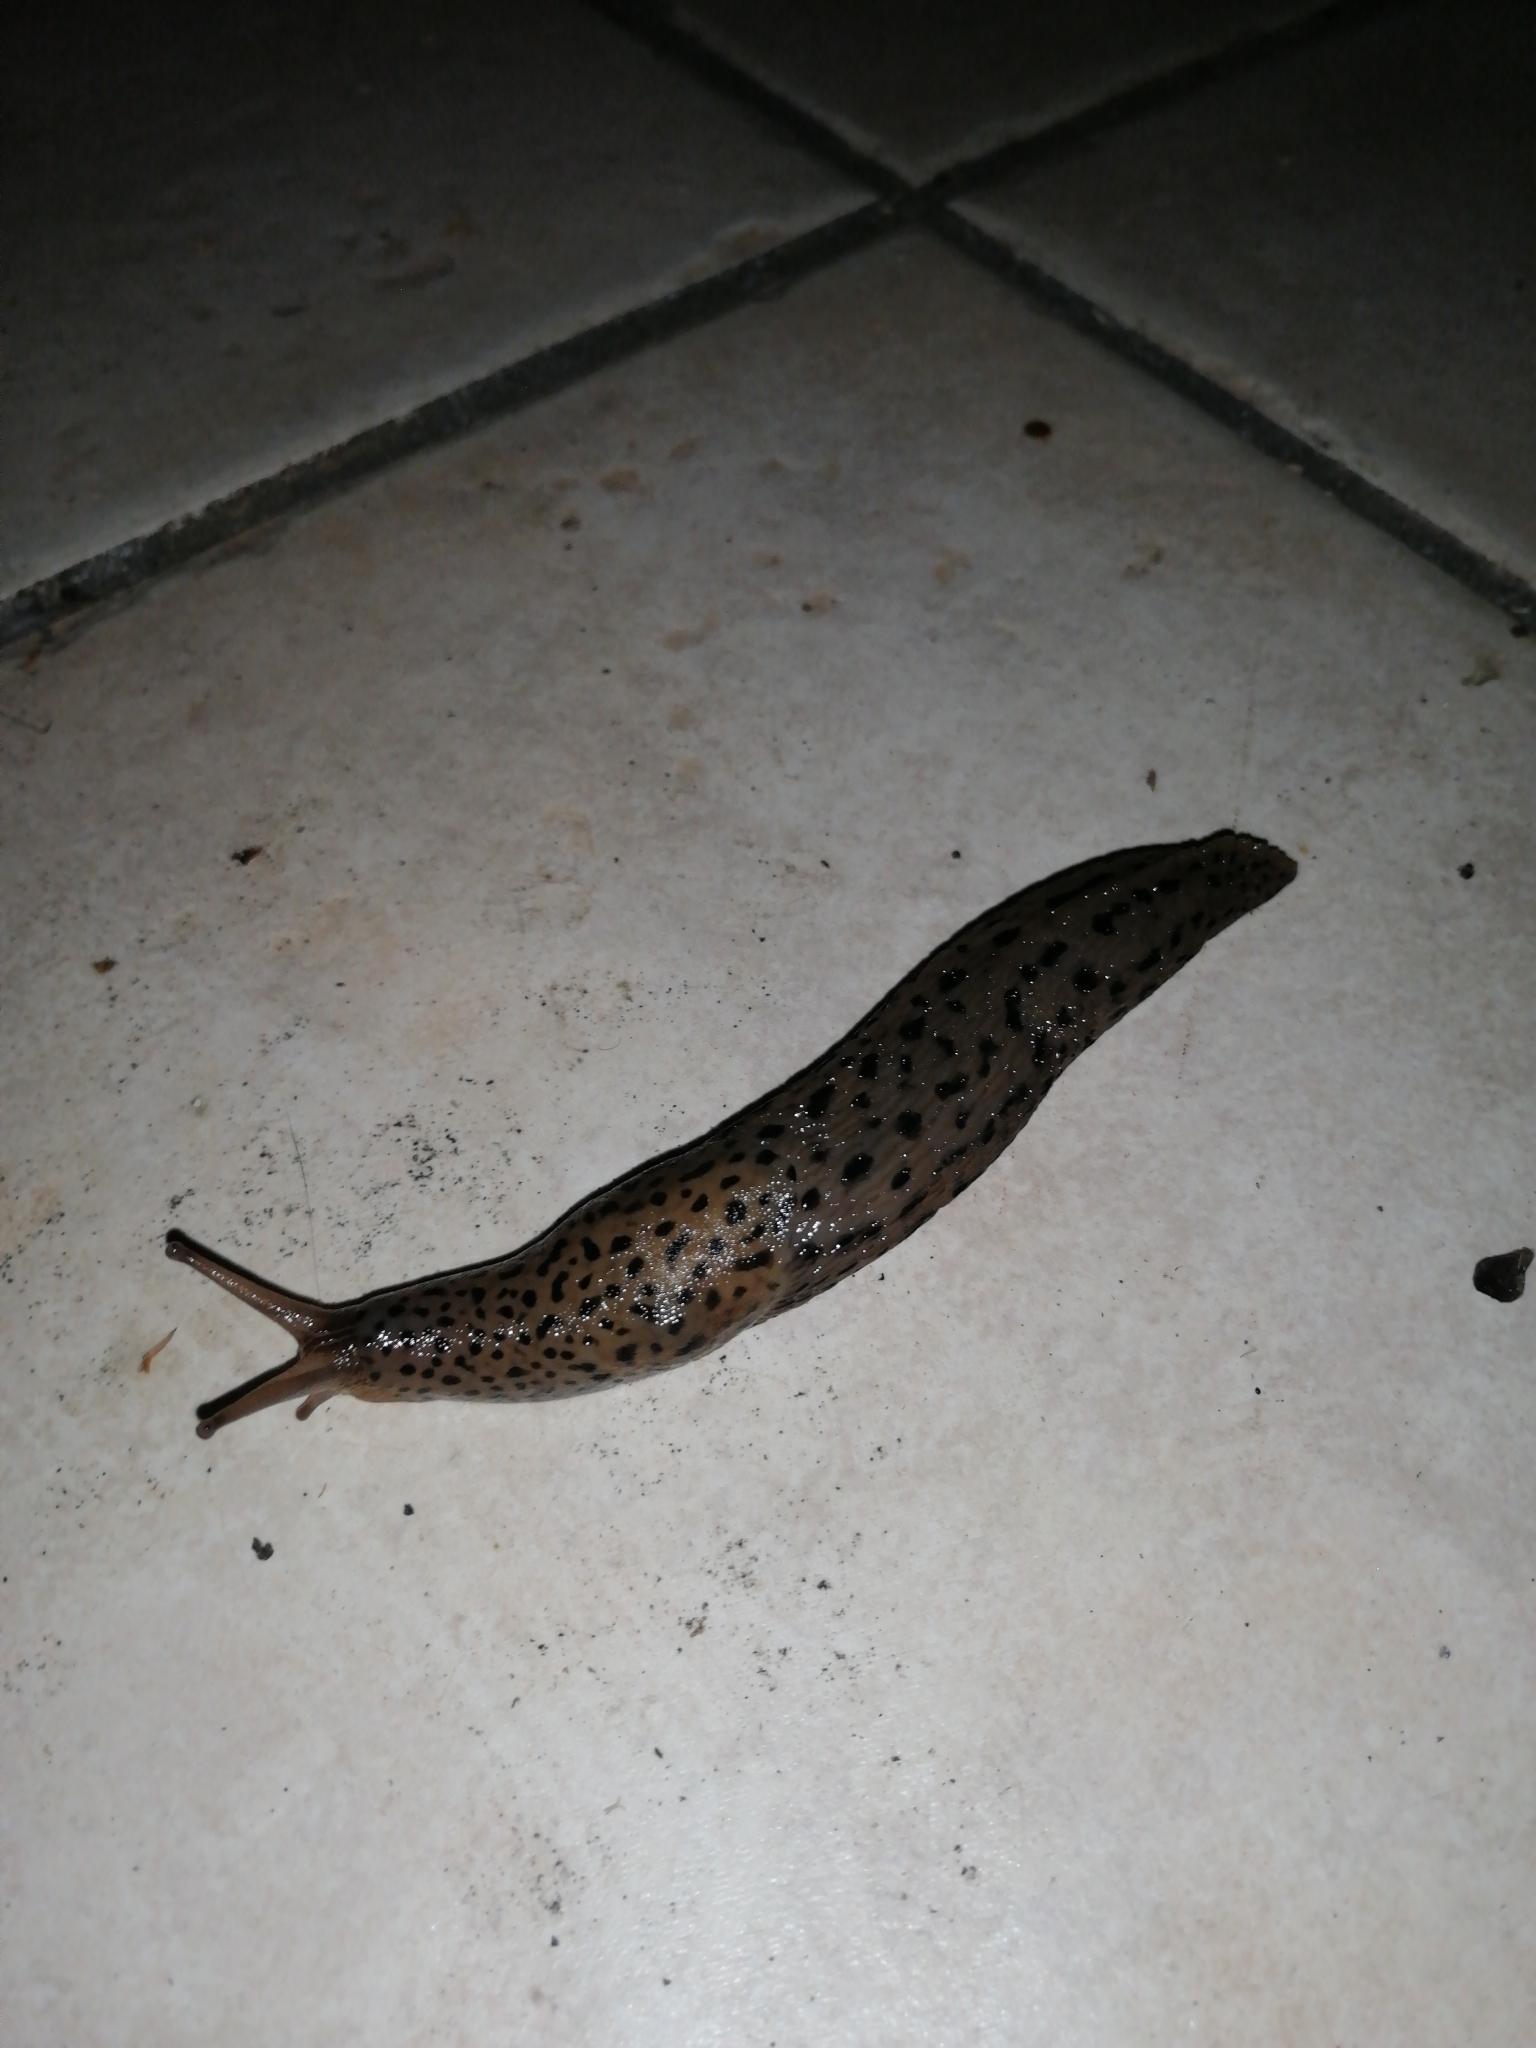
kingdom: Animalia
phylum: Mollusca
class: Gastropoda
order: Stylommatophora
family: Limacidae
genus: Limax
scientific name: Limax maximus
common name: Great grey slug
